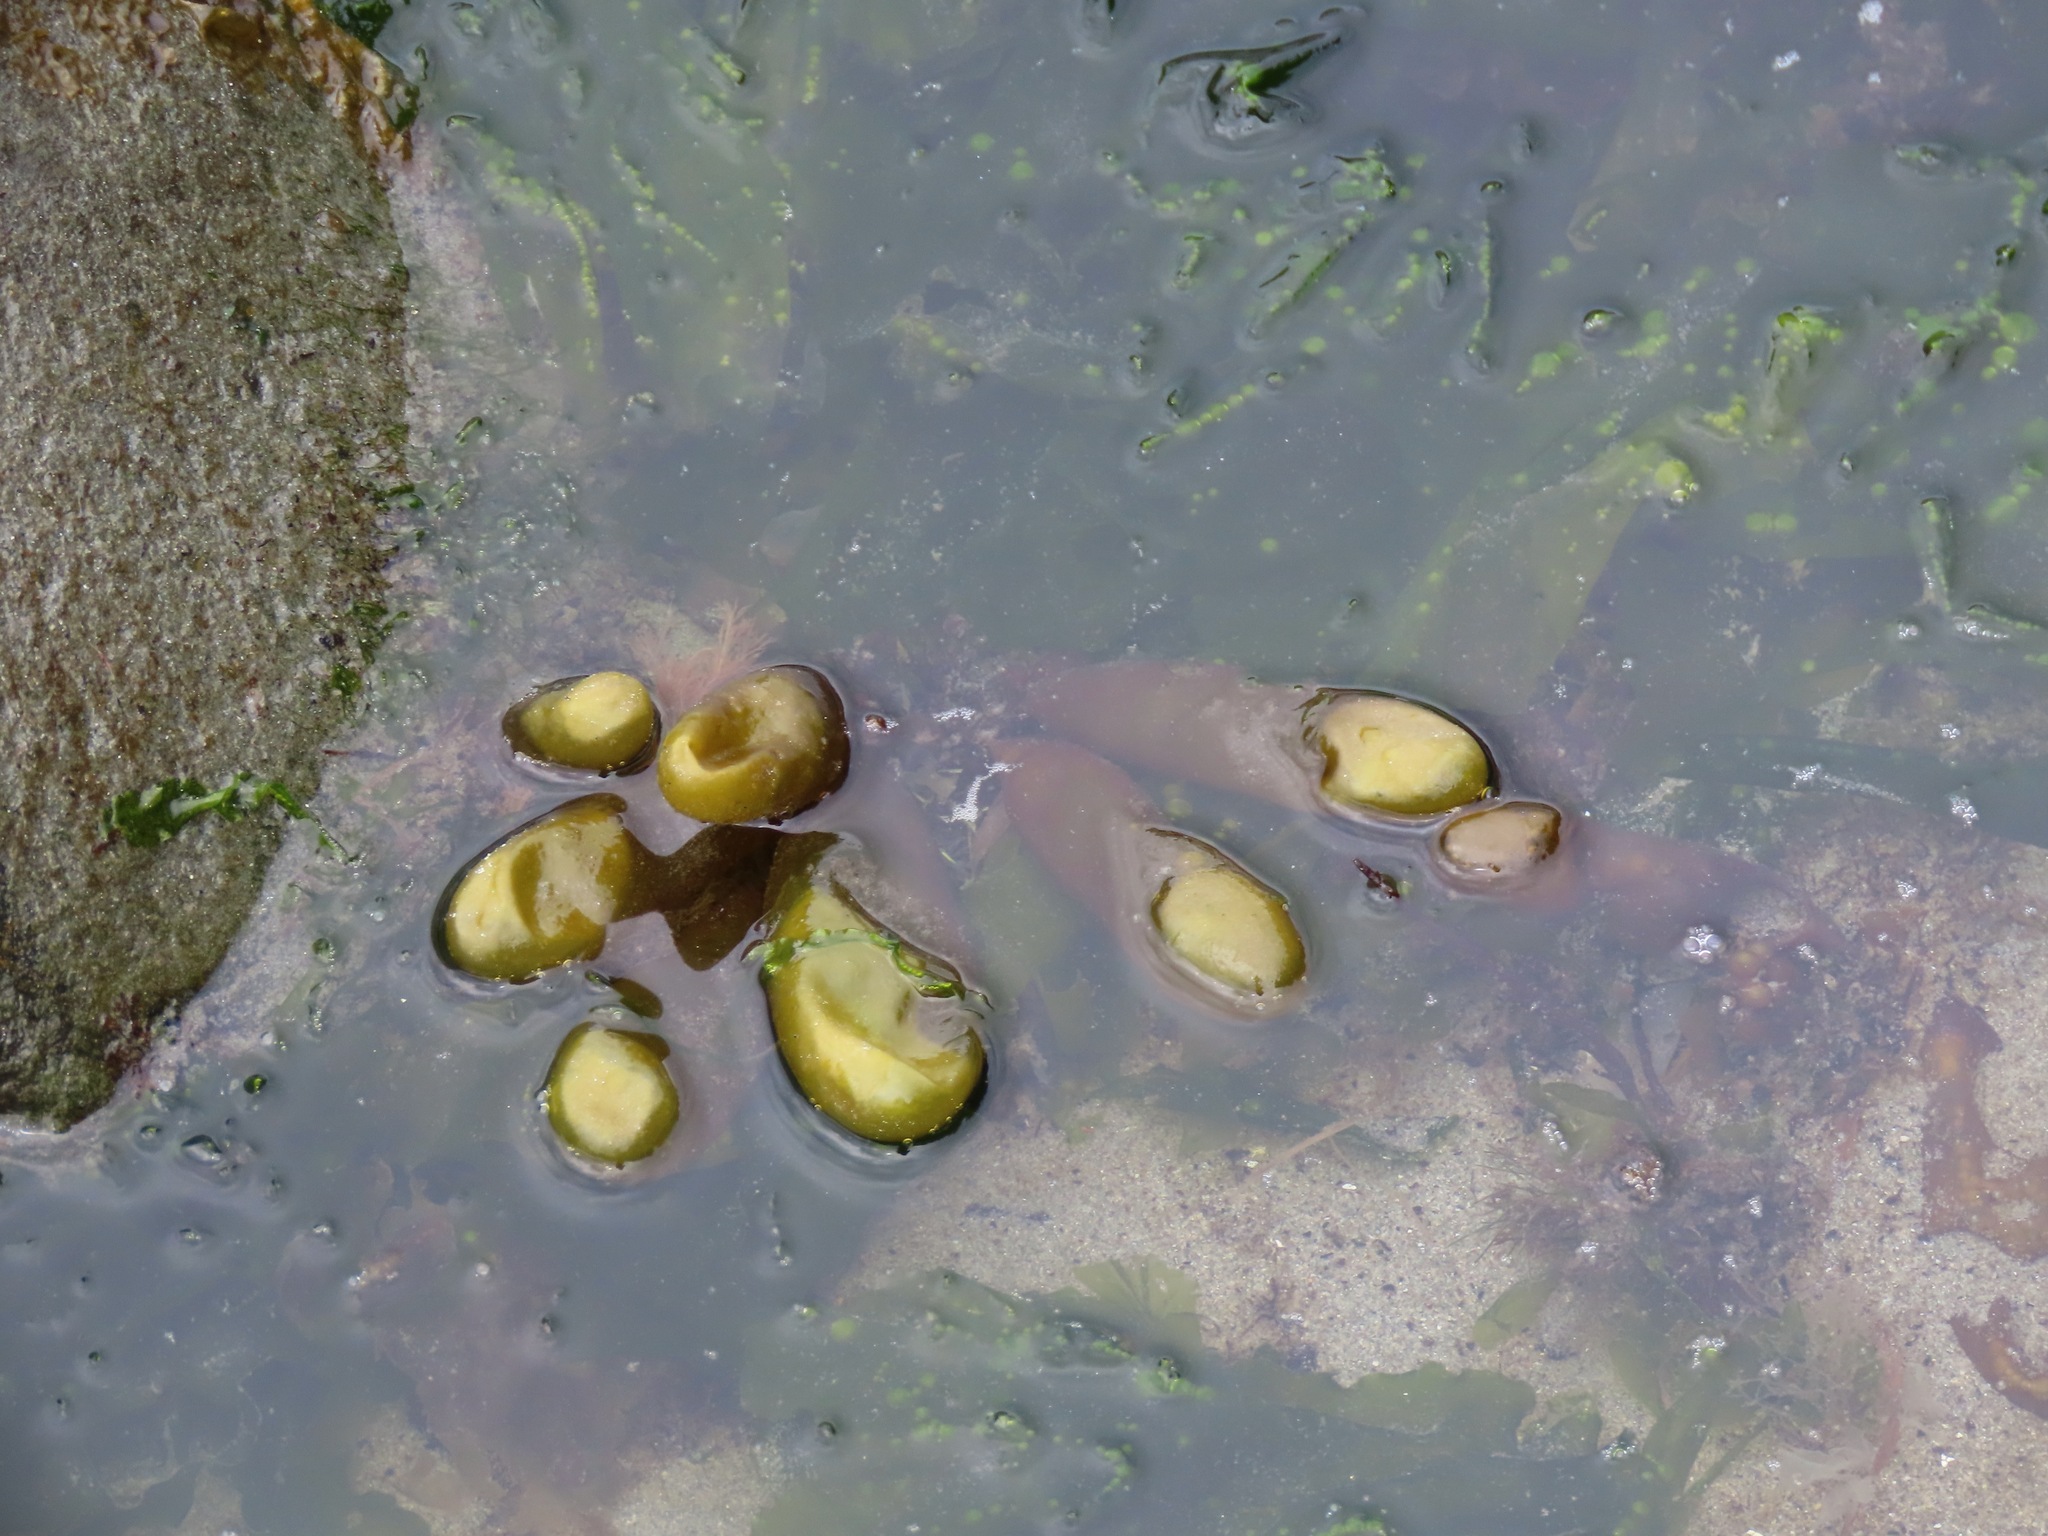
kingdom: Plantae
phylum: Rhodophyta
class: Florideophyceae
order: Palmariales
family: Palmariaceae
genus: Halosaccion
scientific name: Halosaccion glandiforme
